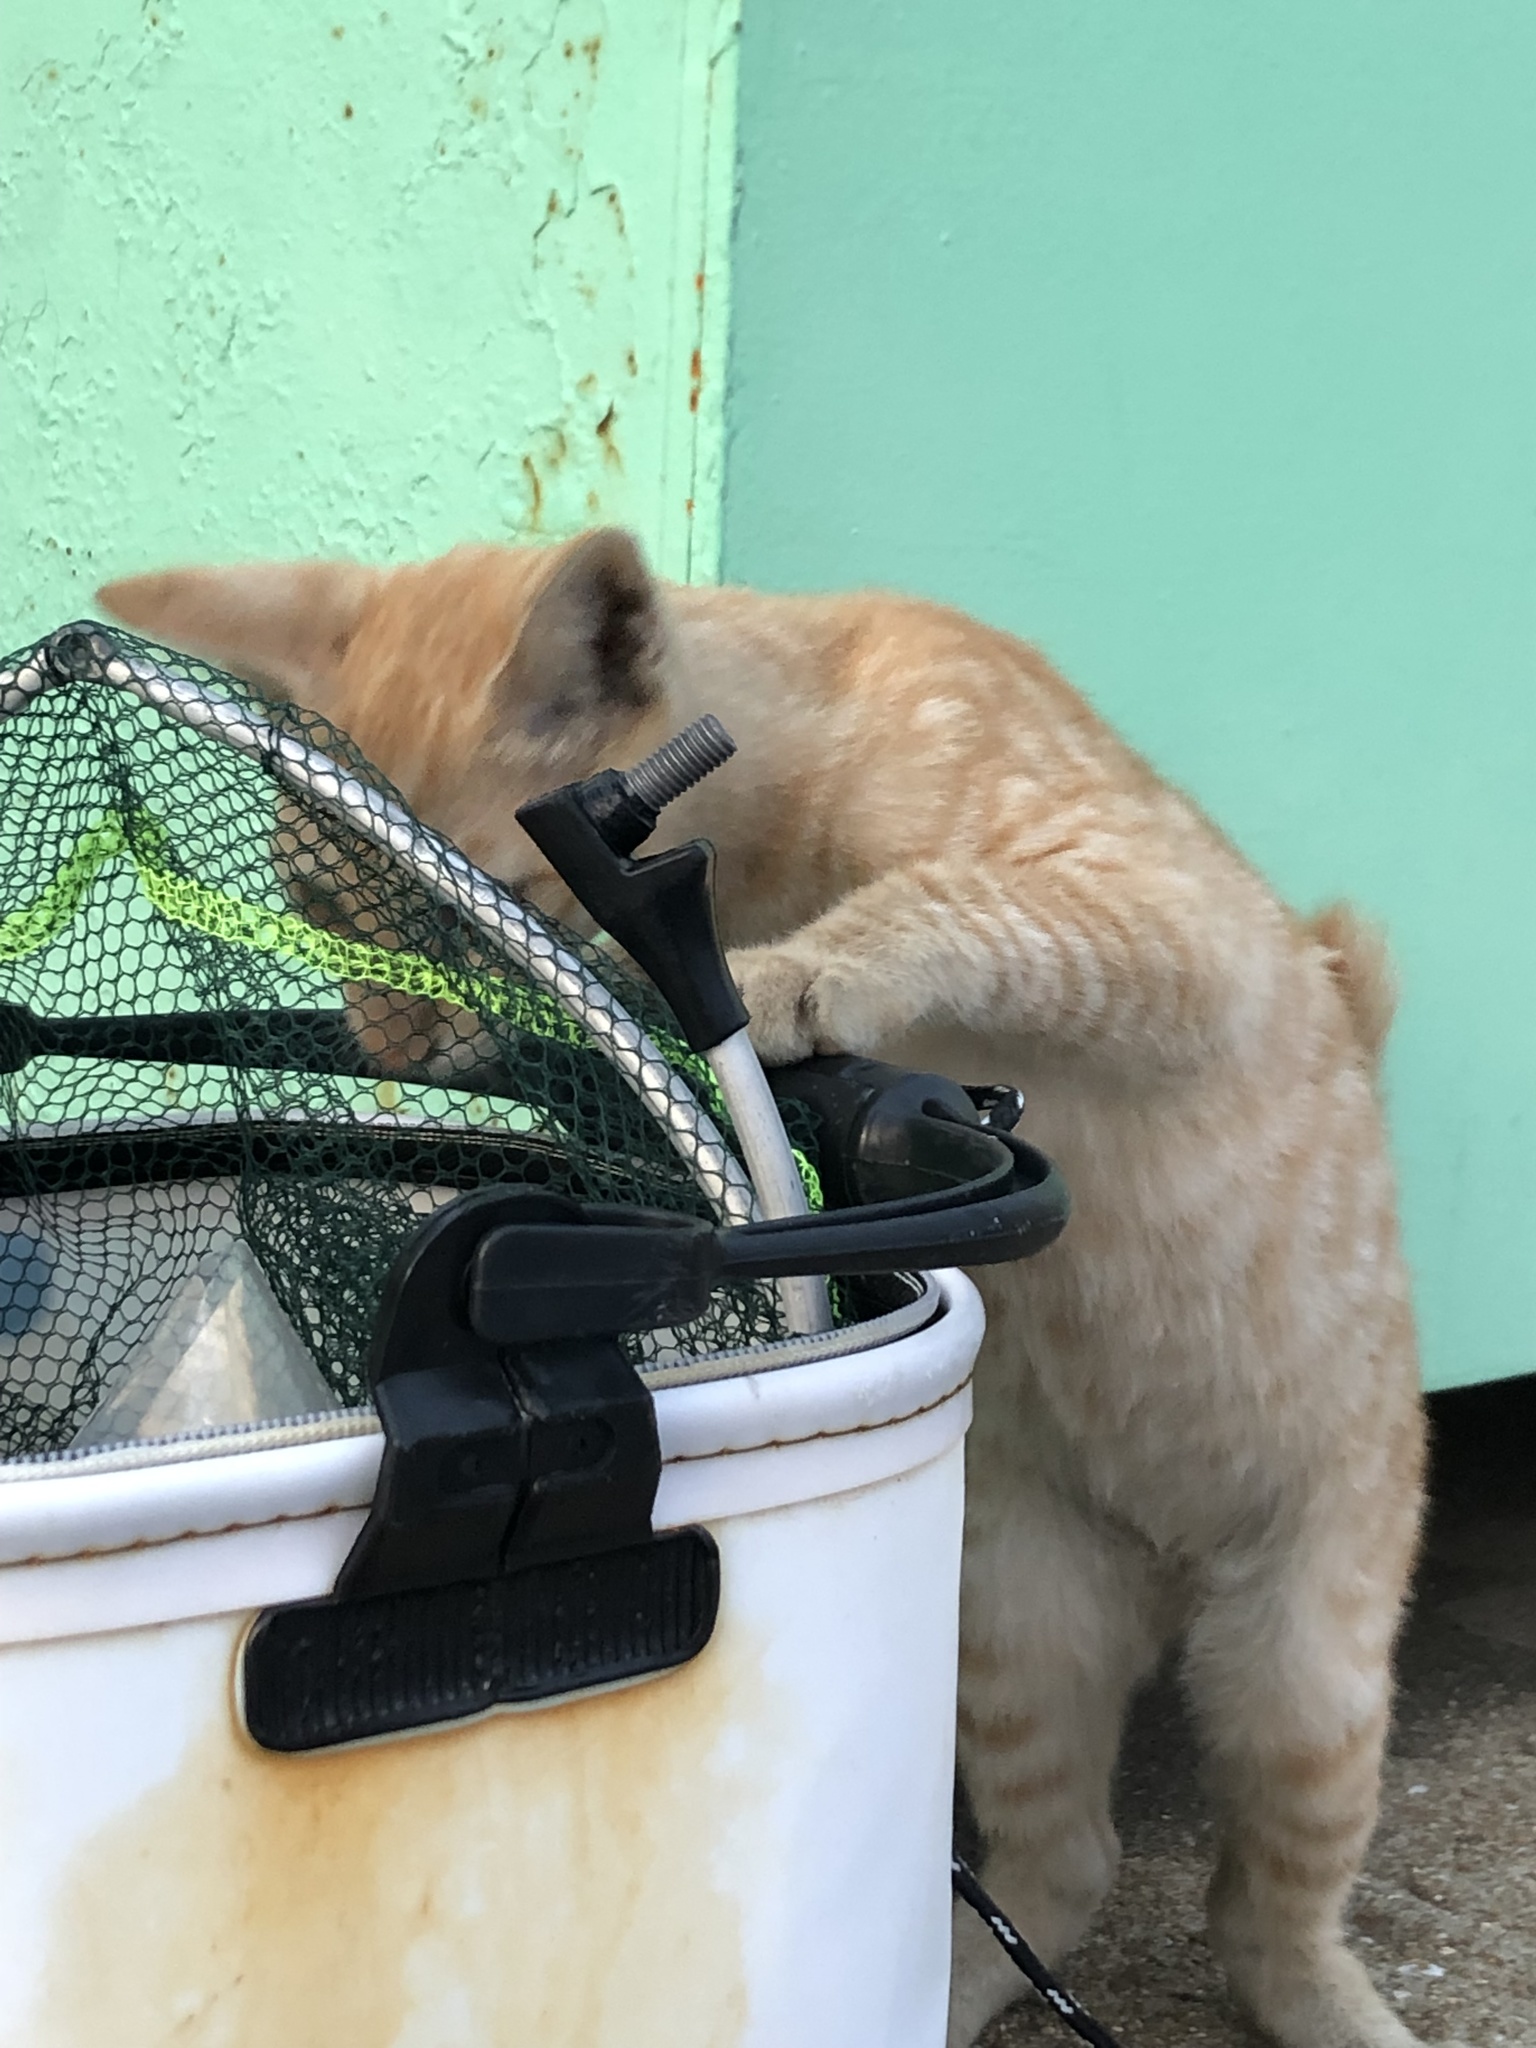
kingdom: Animalia
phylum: Chordata
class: Mammalia
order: Carnivora
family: Felidae
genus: Felis
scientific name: Felis catus
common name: Domestic cat
